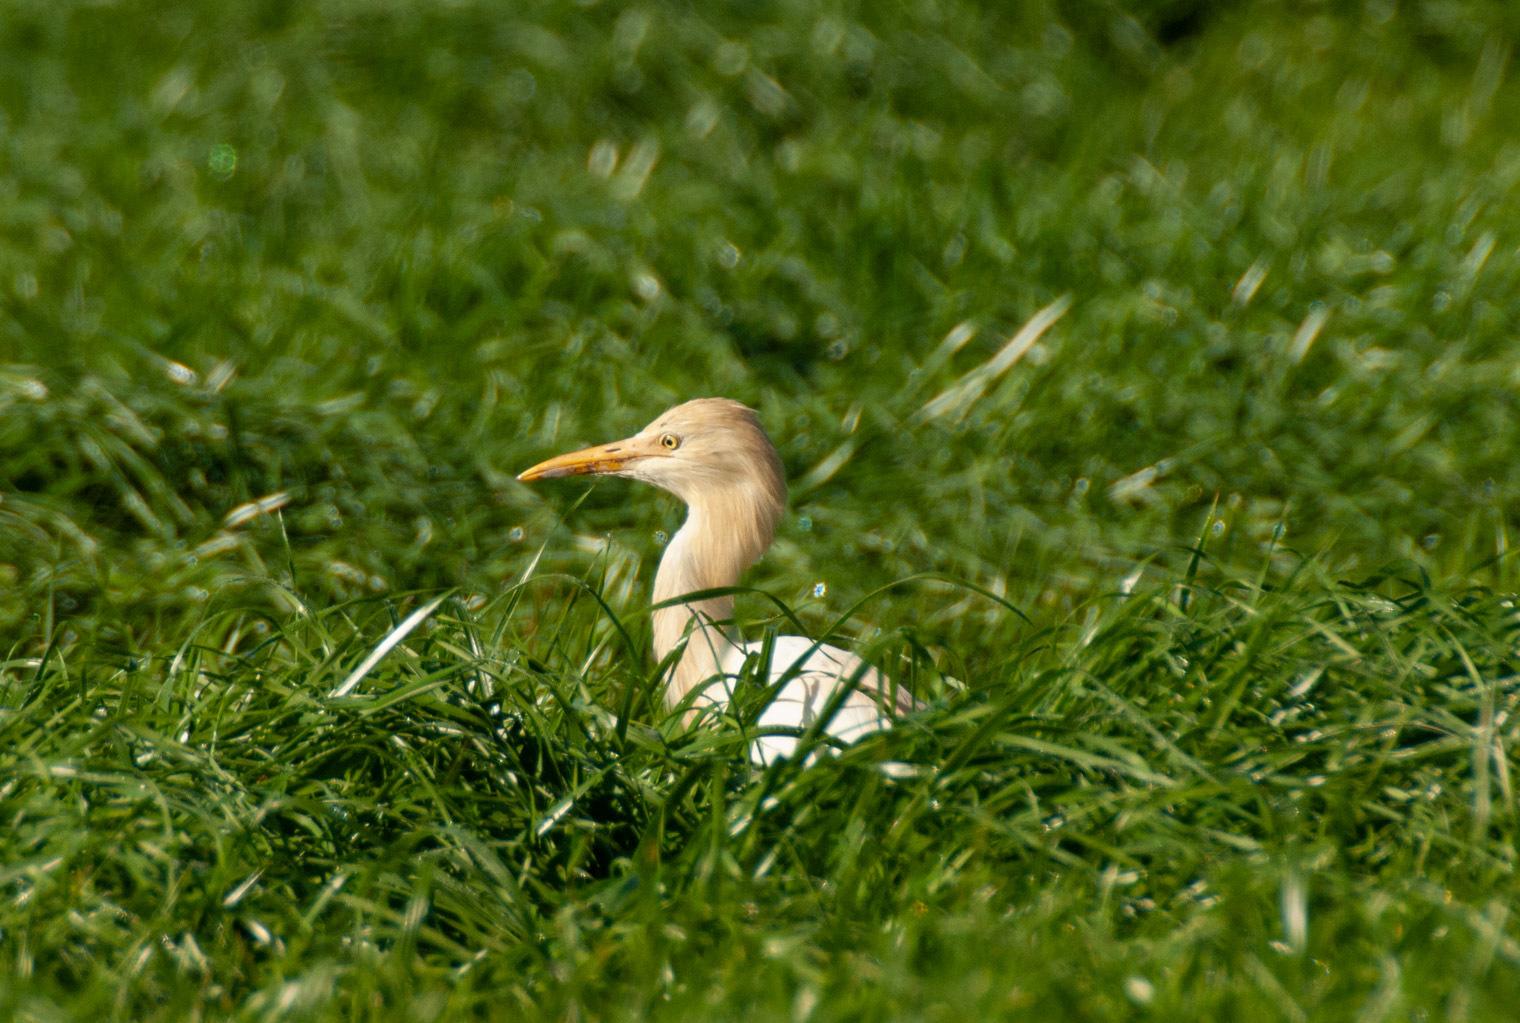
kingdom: Animalia
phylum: Chordata
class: Aves
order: Pelecaniformes
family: Ardeidae
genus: Bubulcus
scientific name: Bubulcus coromandus
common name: Eastern cattle egret
